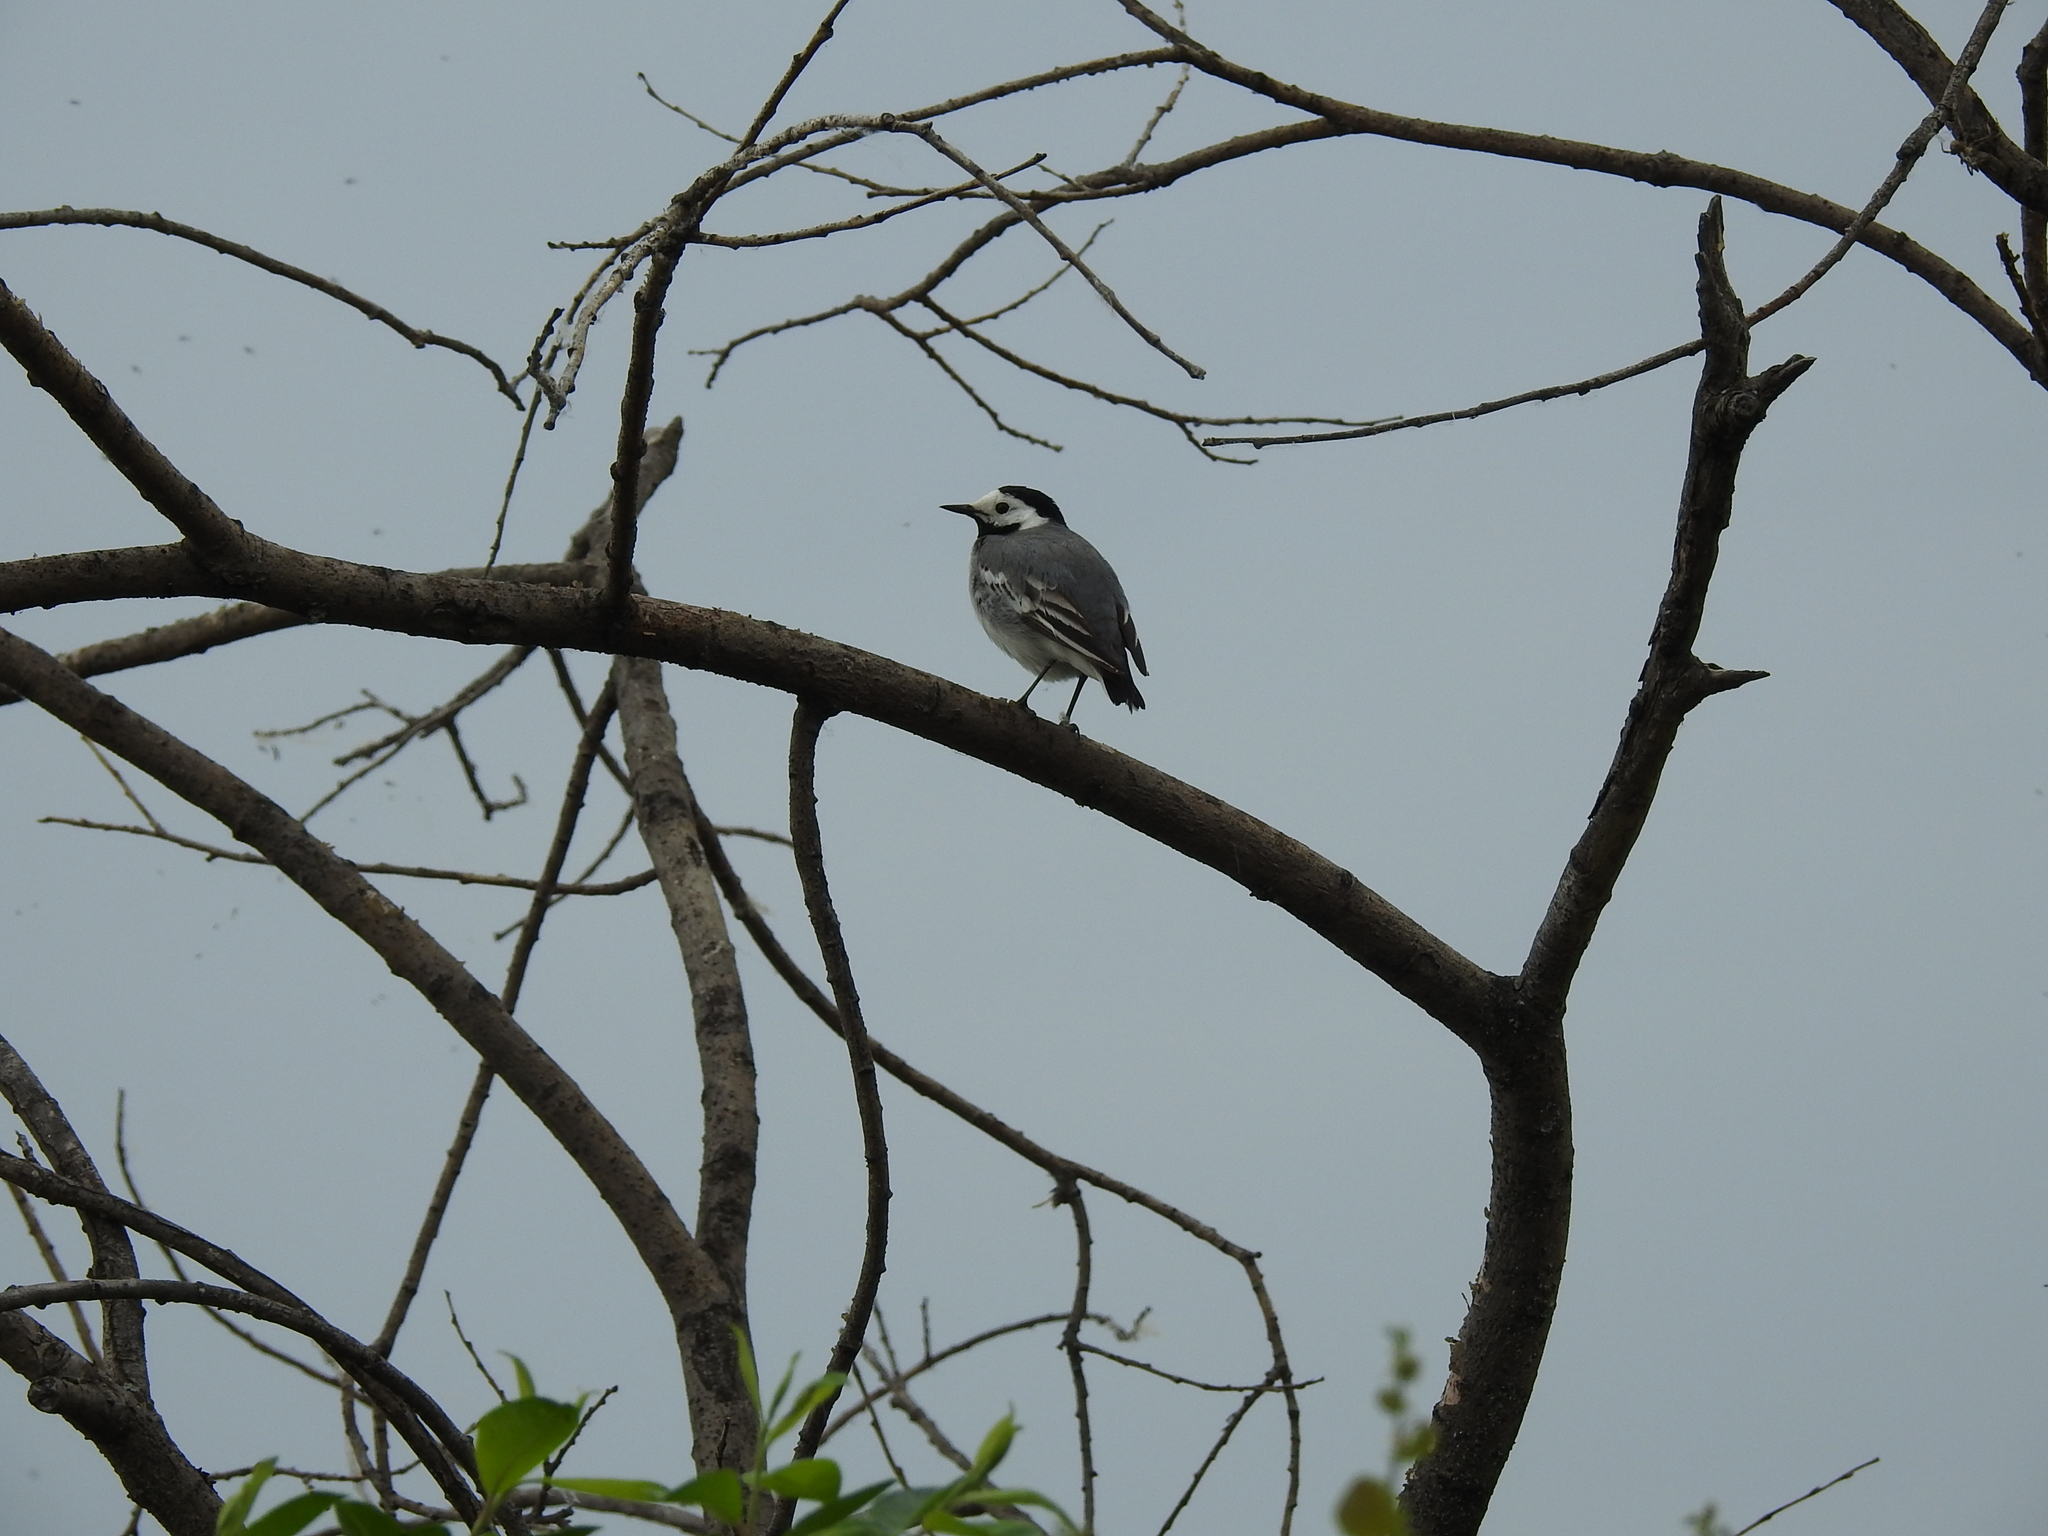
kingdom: Animalia
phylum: Chordata
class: Aves
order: Passeriformes
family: Motacillidae
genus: Motacilla
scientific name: Motacilla alba
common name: White wagtail
